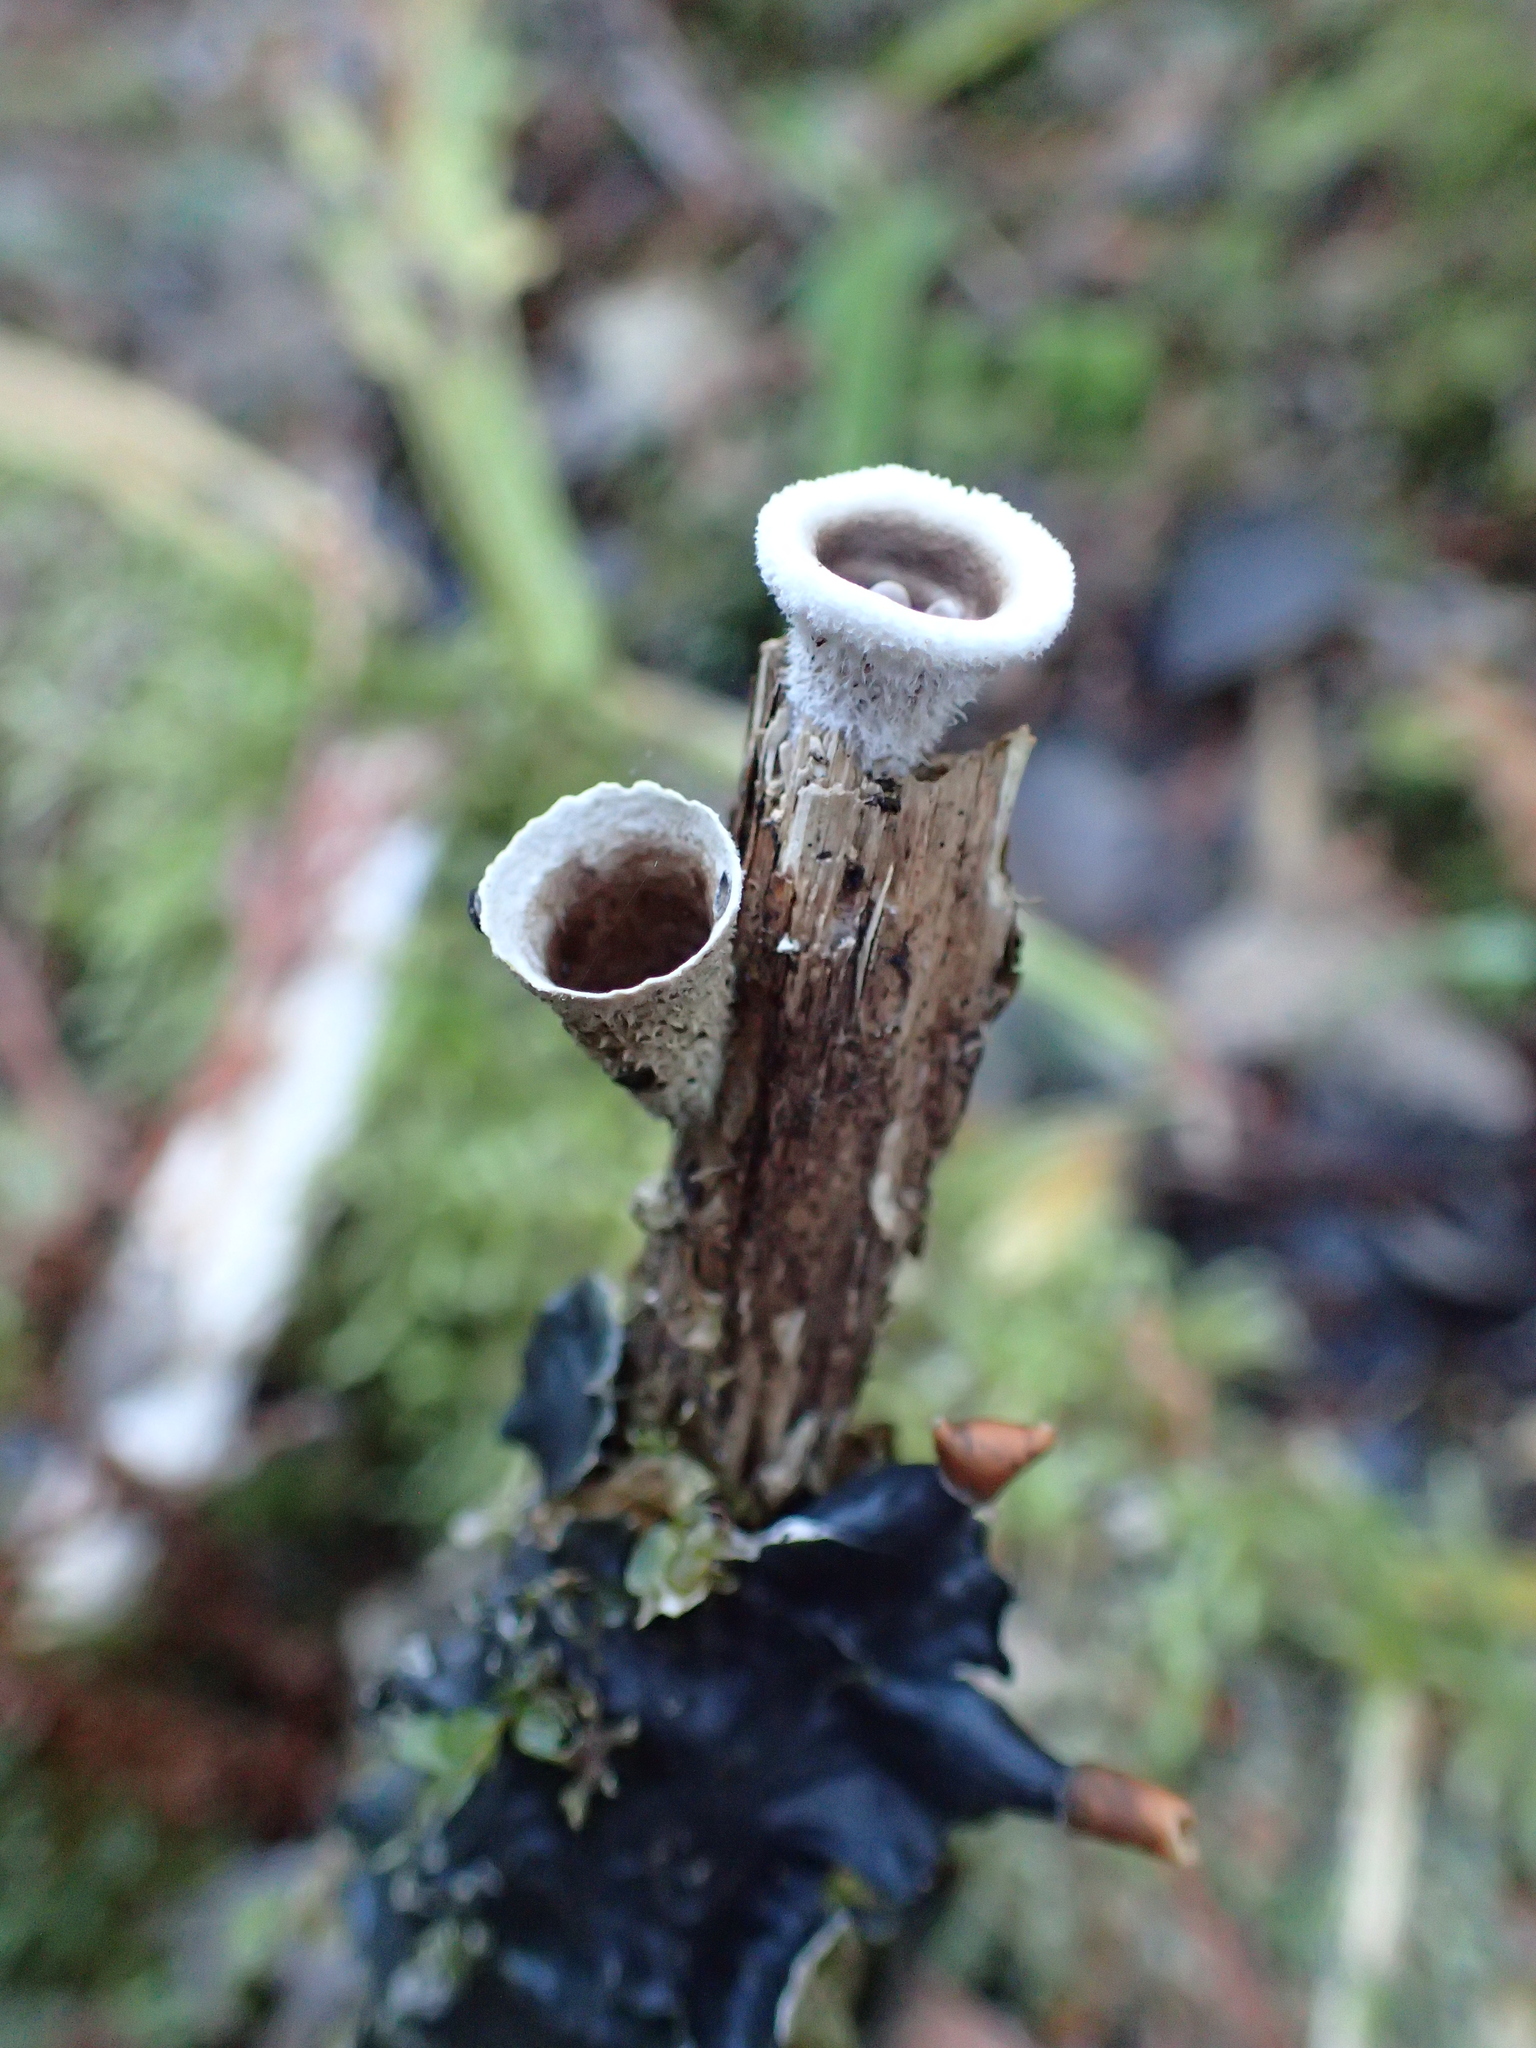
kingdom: Fungi
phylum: Basidiomycota
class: Agaricomycetes
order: Agaricales
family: Agaricaceae
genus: Nidula
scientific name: Nidula candida
